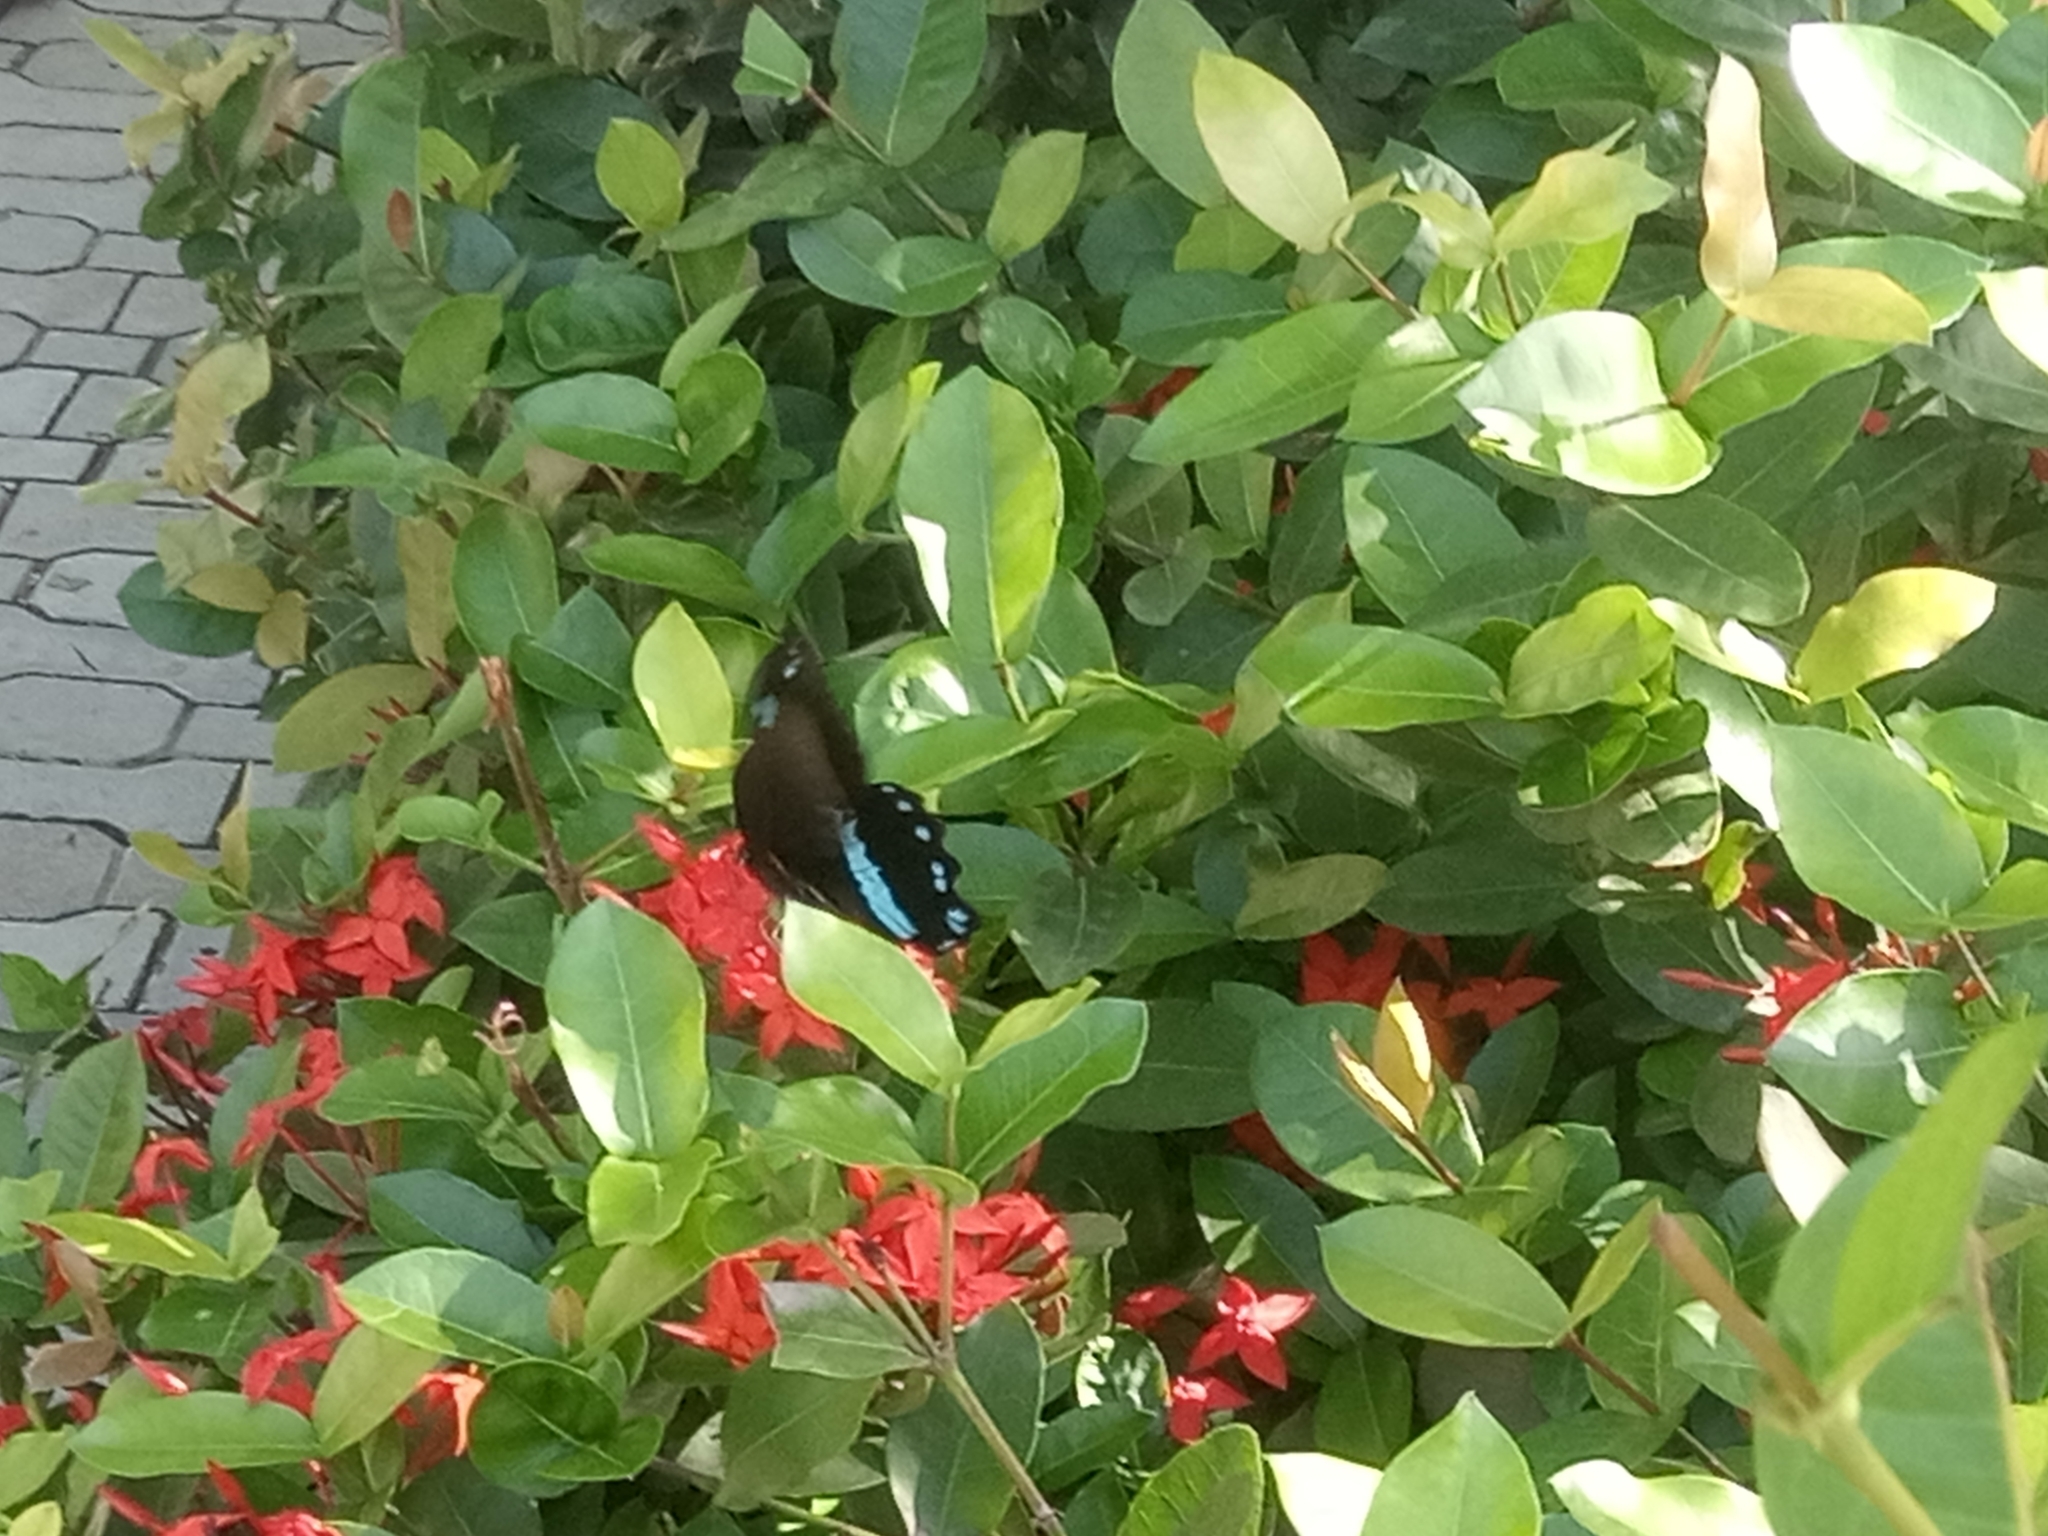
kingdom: Animalia
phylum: Arthropoda
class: Insecta
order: Lepidoptera
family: Papilionidae
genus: Papilio
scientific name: Papilio nireus
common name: Greenbanded swallowtail
